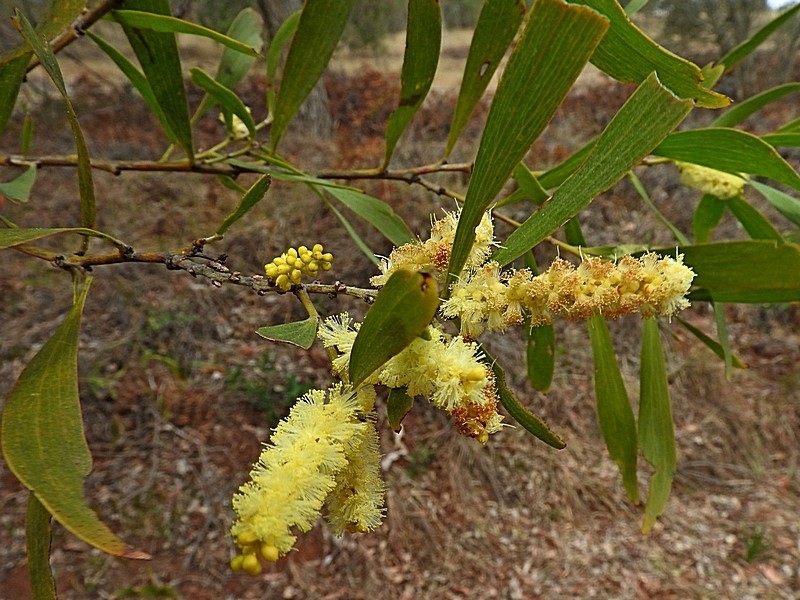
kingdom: Plantae
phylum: Tracheophyta
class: Magnoliopsida
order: Fabales
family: Fabaceae
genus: Acacia
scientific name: Acacia floribunda
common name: Gossamer wattle
